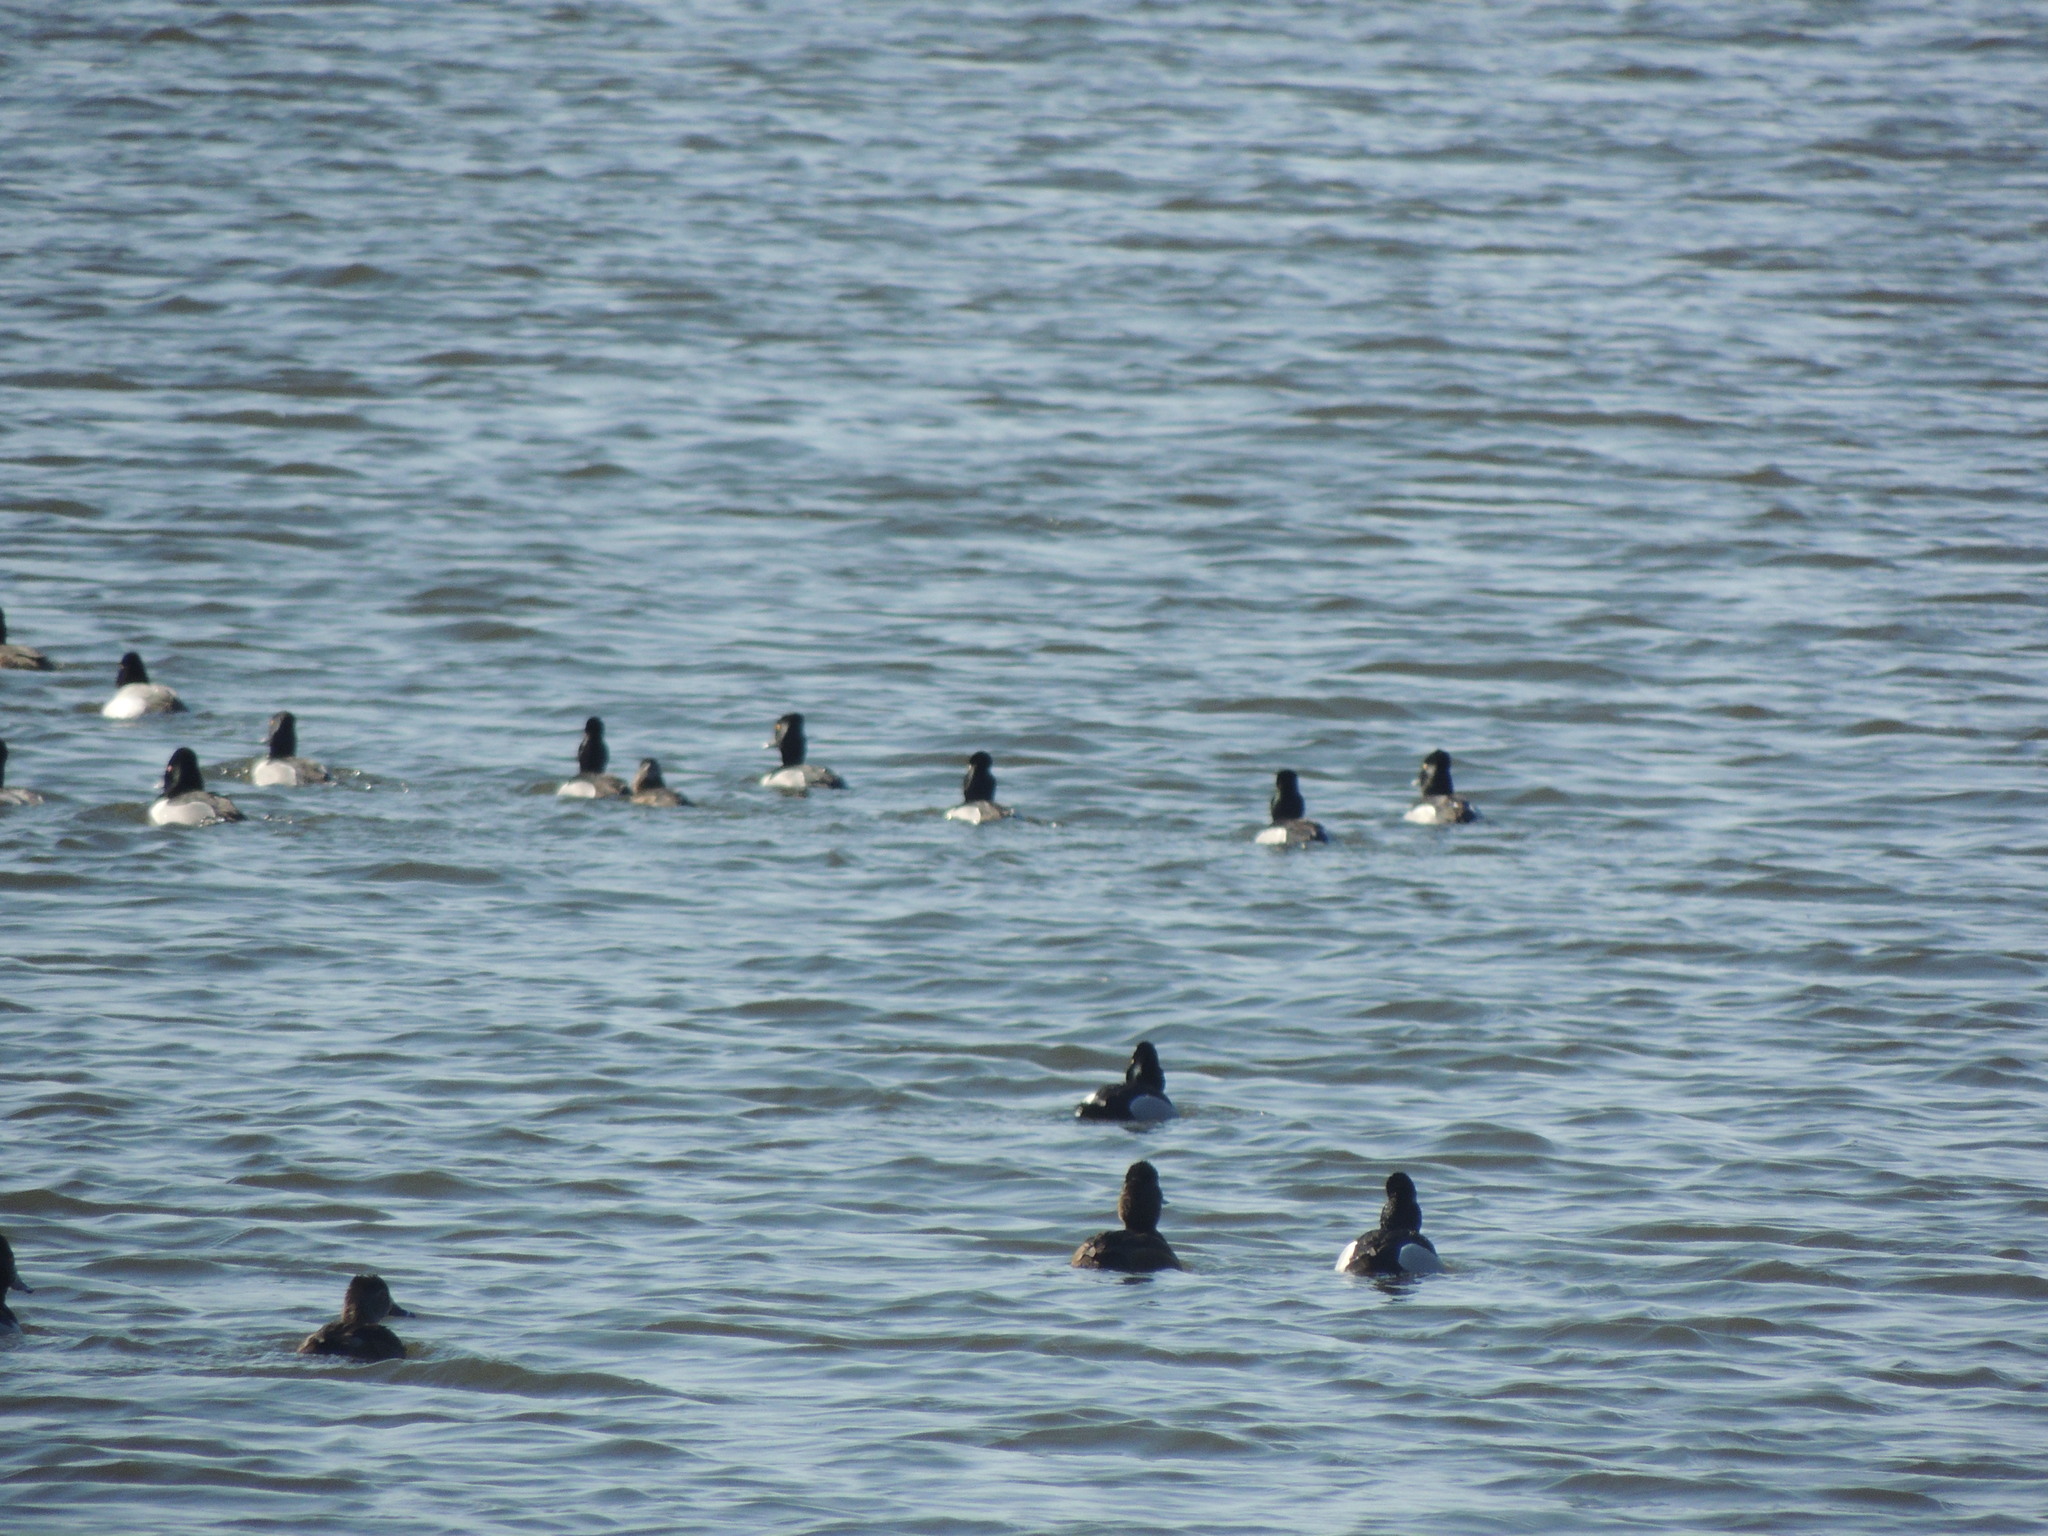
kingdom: Animalia
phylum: Chordata
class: Aves
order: Anseriformes
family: Anatidae
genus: Aythya
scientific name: Aythya collaris
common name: Ring-necked duck
